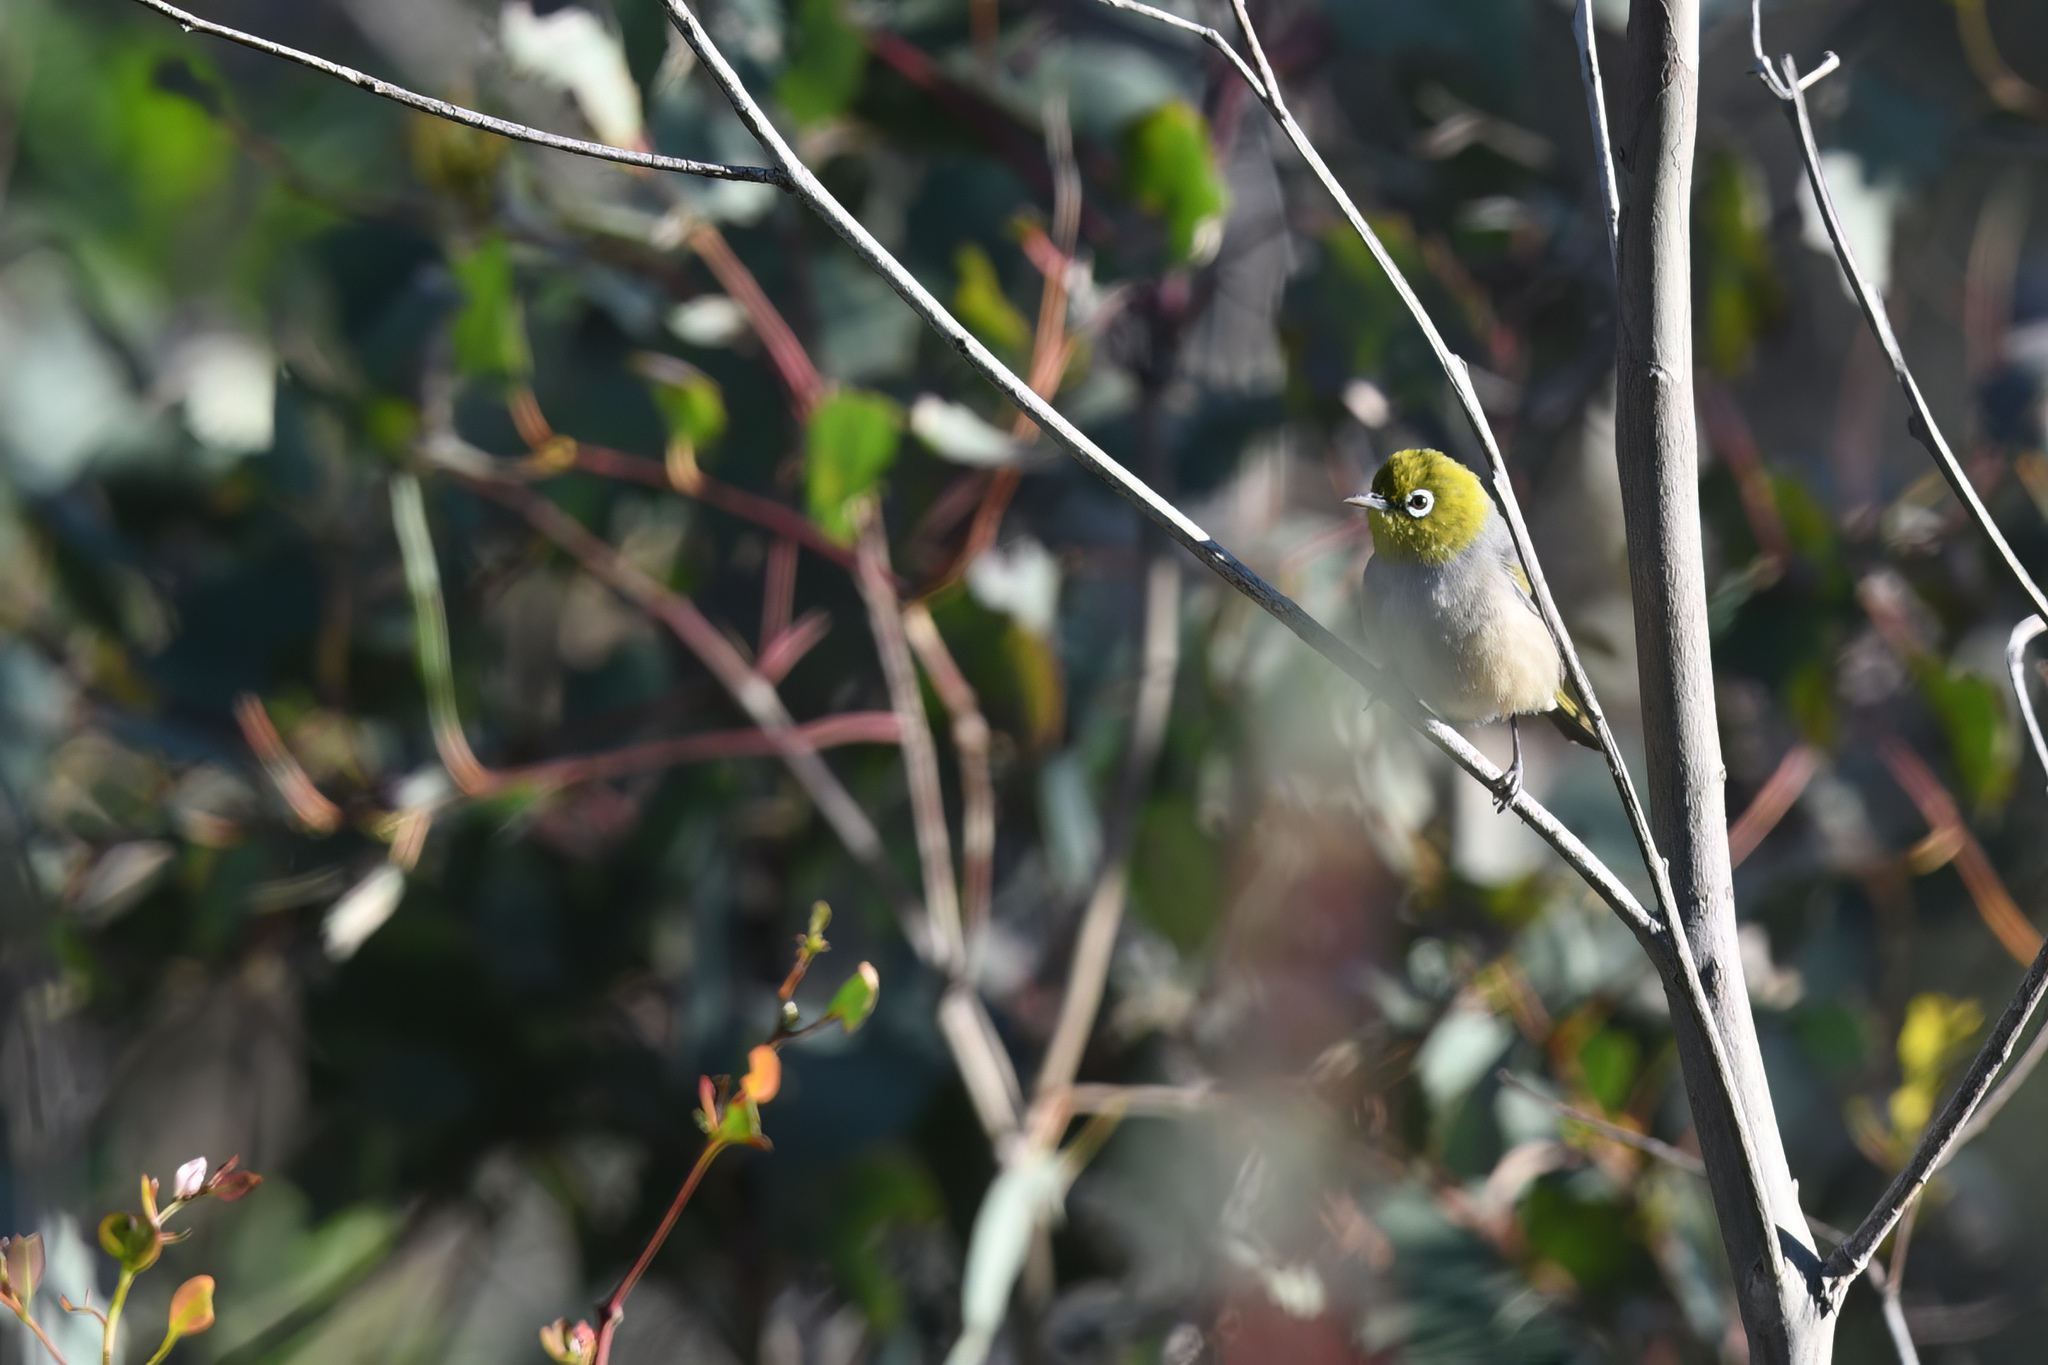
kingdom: Animalia
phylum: Chordata
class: Aves
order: Passeriformes
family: Zosteropidae
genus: Zosterops
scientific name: Zosterops lateralis
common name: Silvereye
